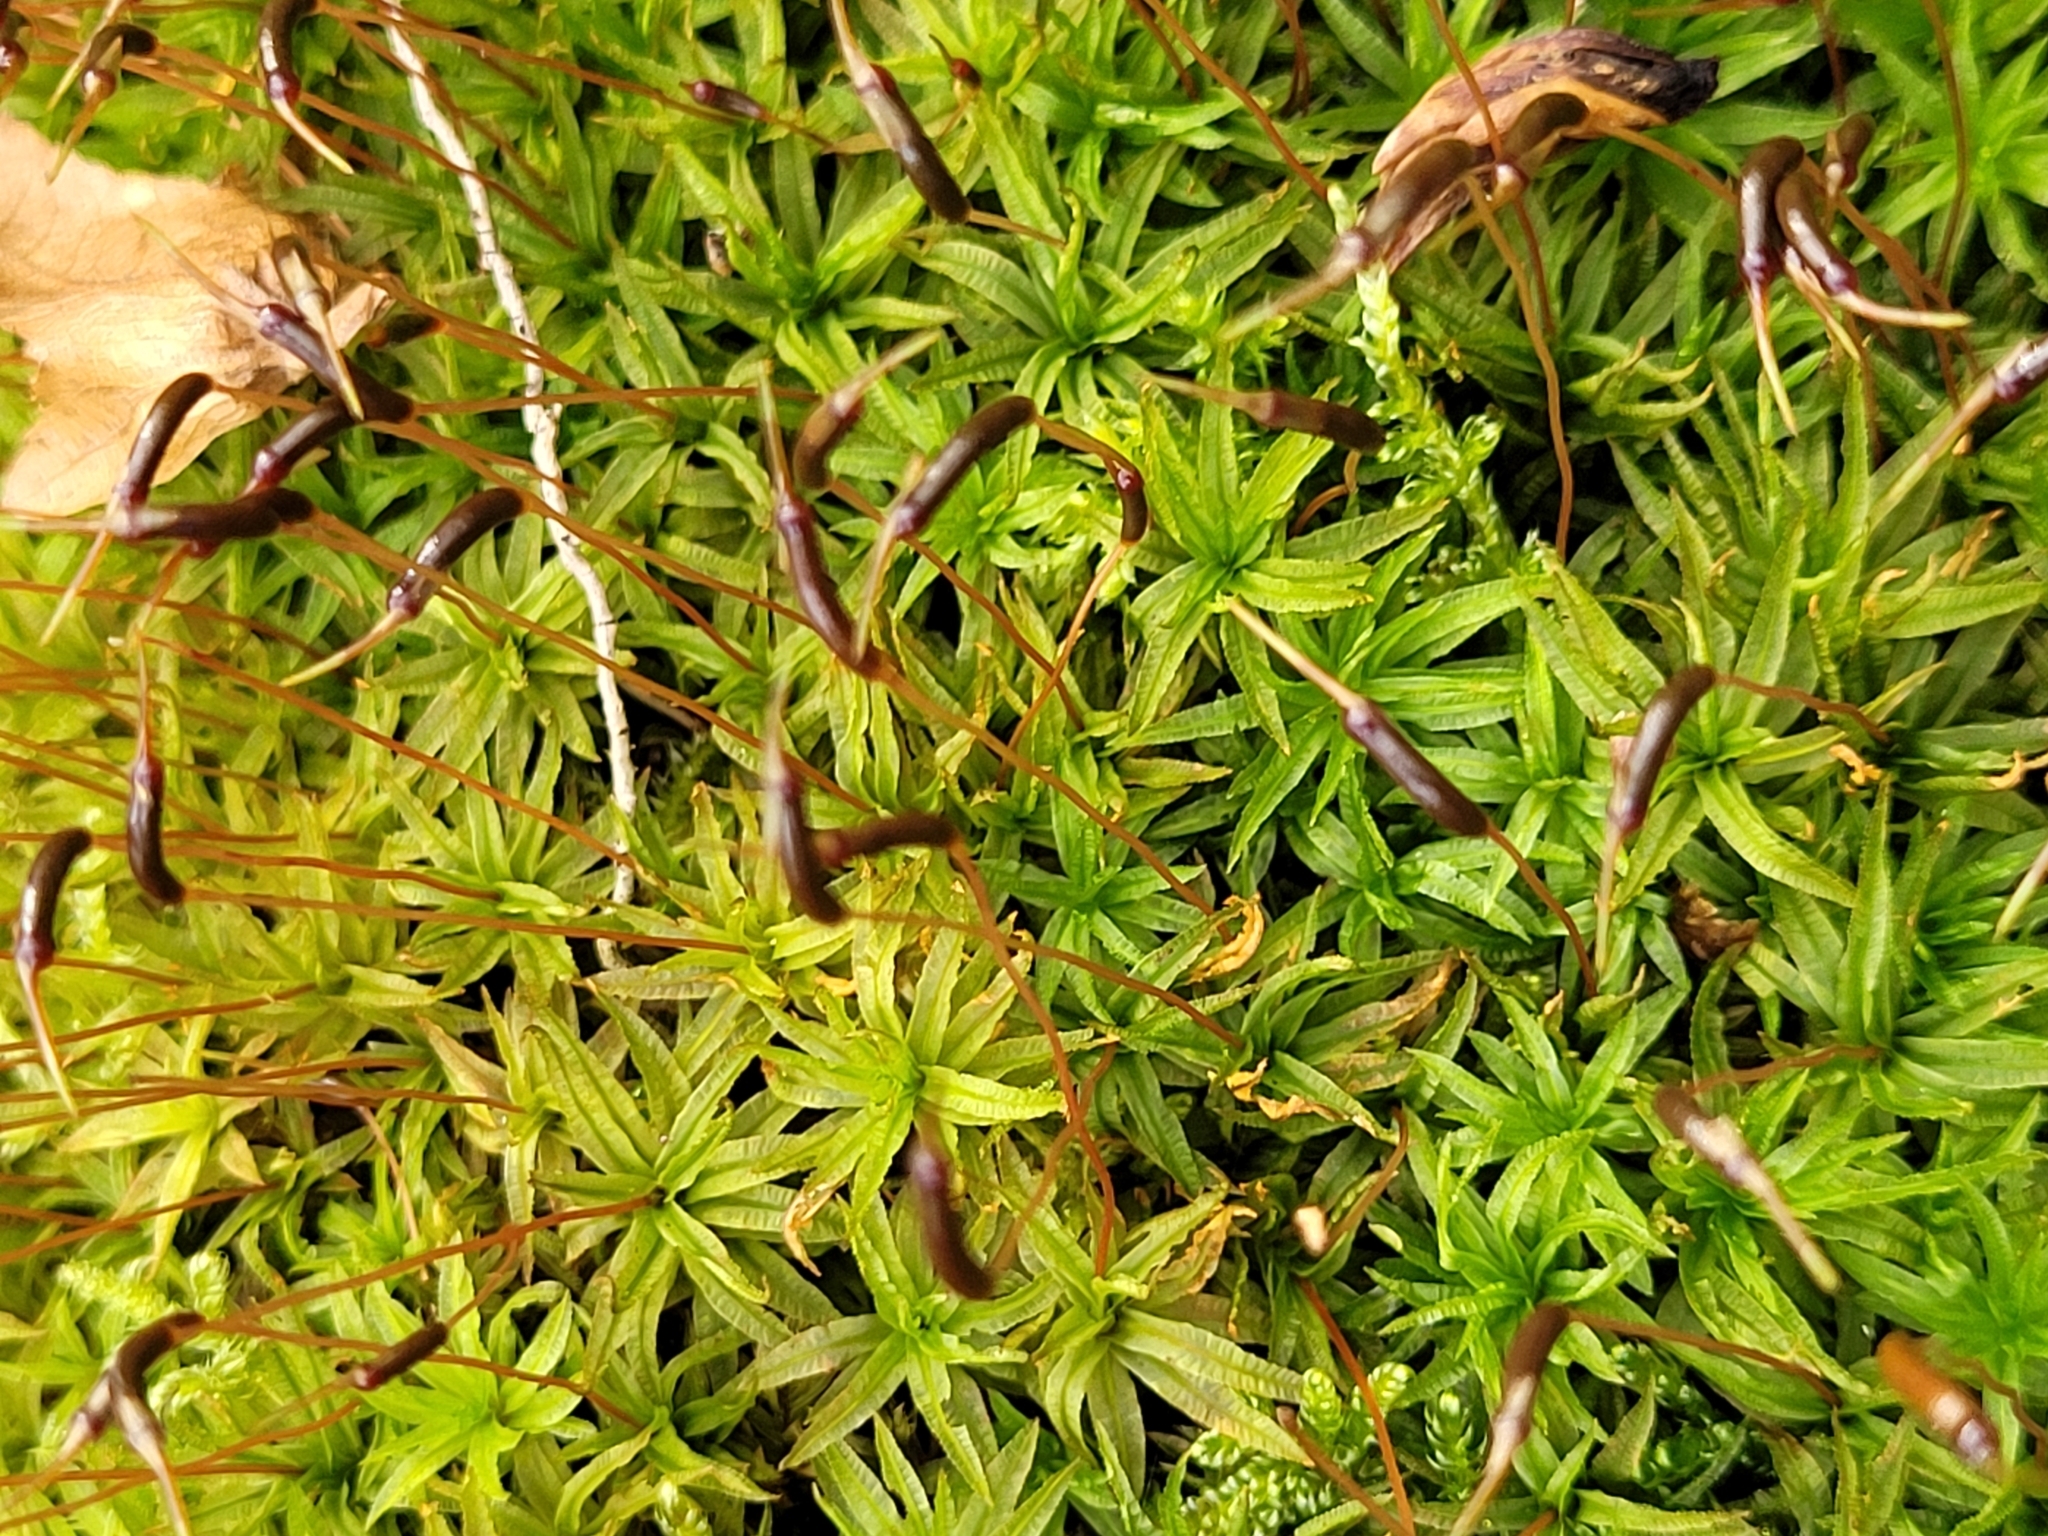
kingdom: Plantae
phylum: Bryophyta
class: Polytrichopsida
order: Polytrichales
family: Polytrichaceae
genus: Atrichum
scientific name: Atrichum undulatum
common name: Common smoothcap
